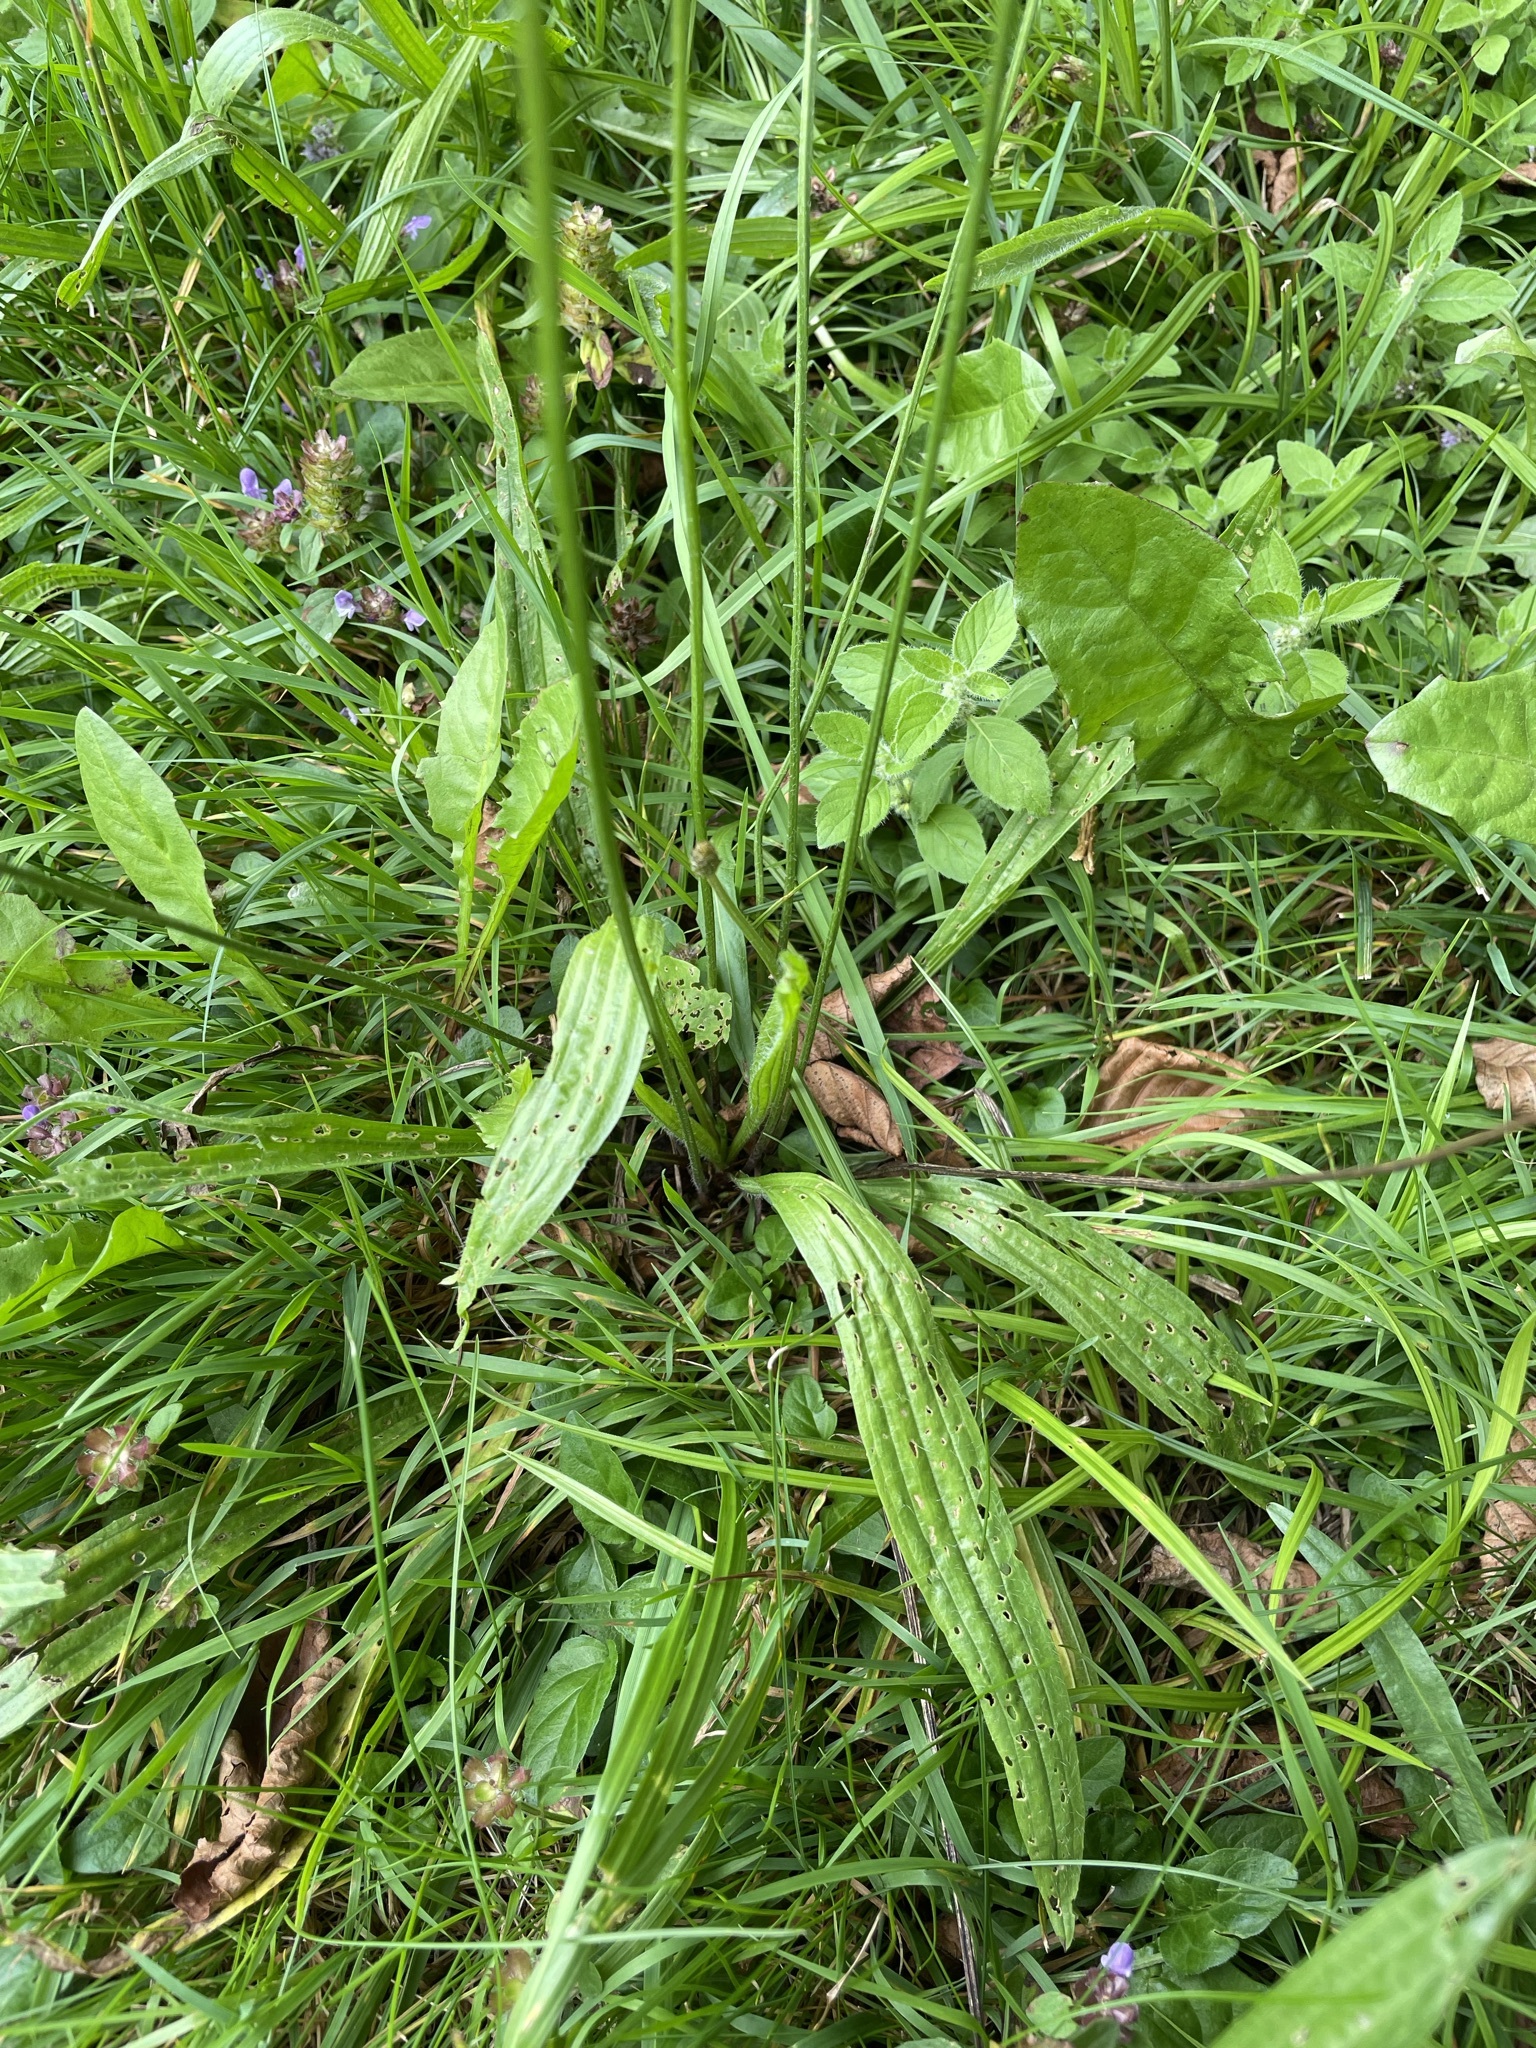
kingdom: Plantae
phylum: Tracheophyta
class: Magnoliopsida
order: Lamiales
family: Plantaginaceae
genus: Plantago
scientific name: Plantago lanceolata
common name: Ribwort plantain
